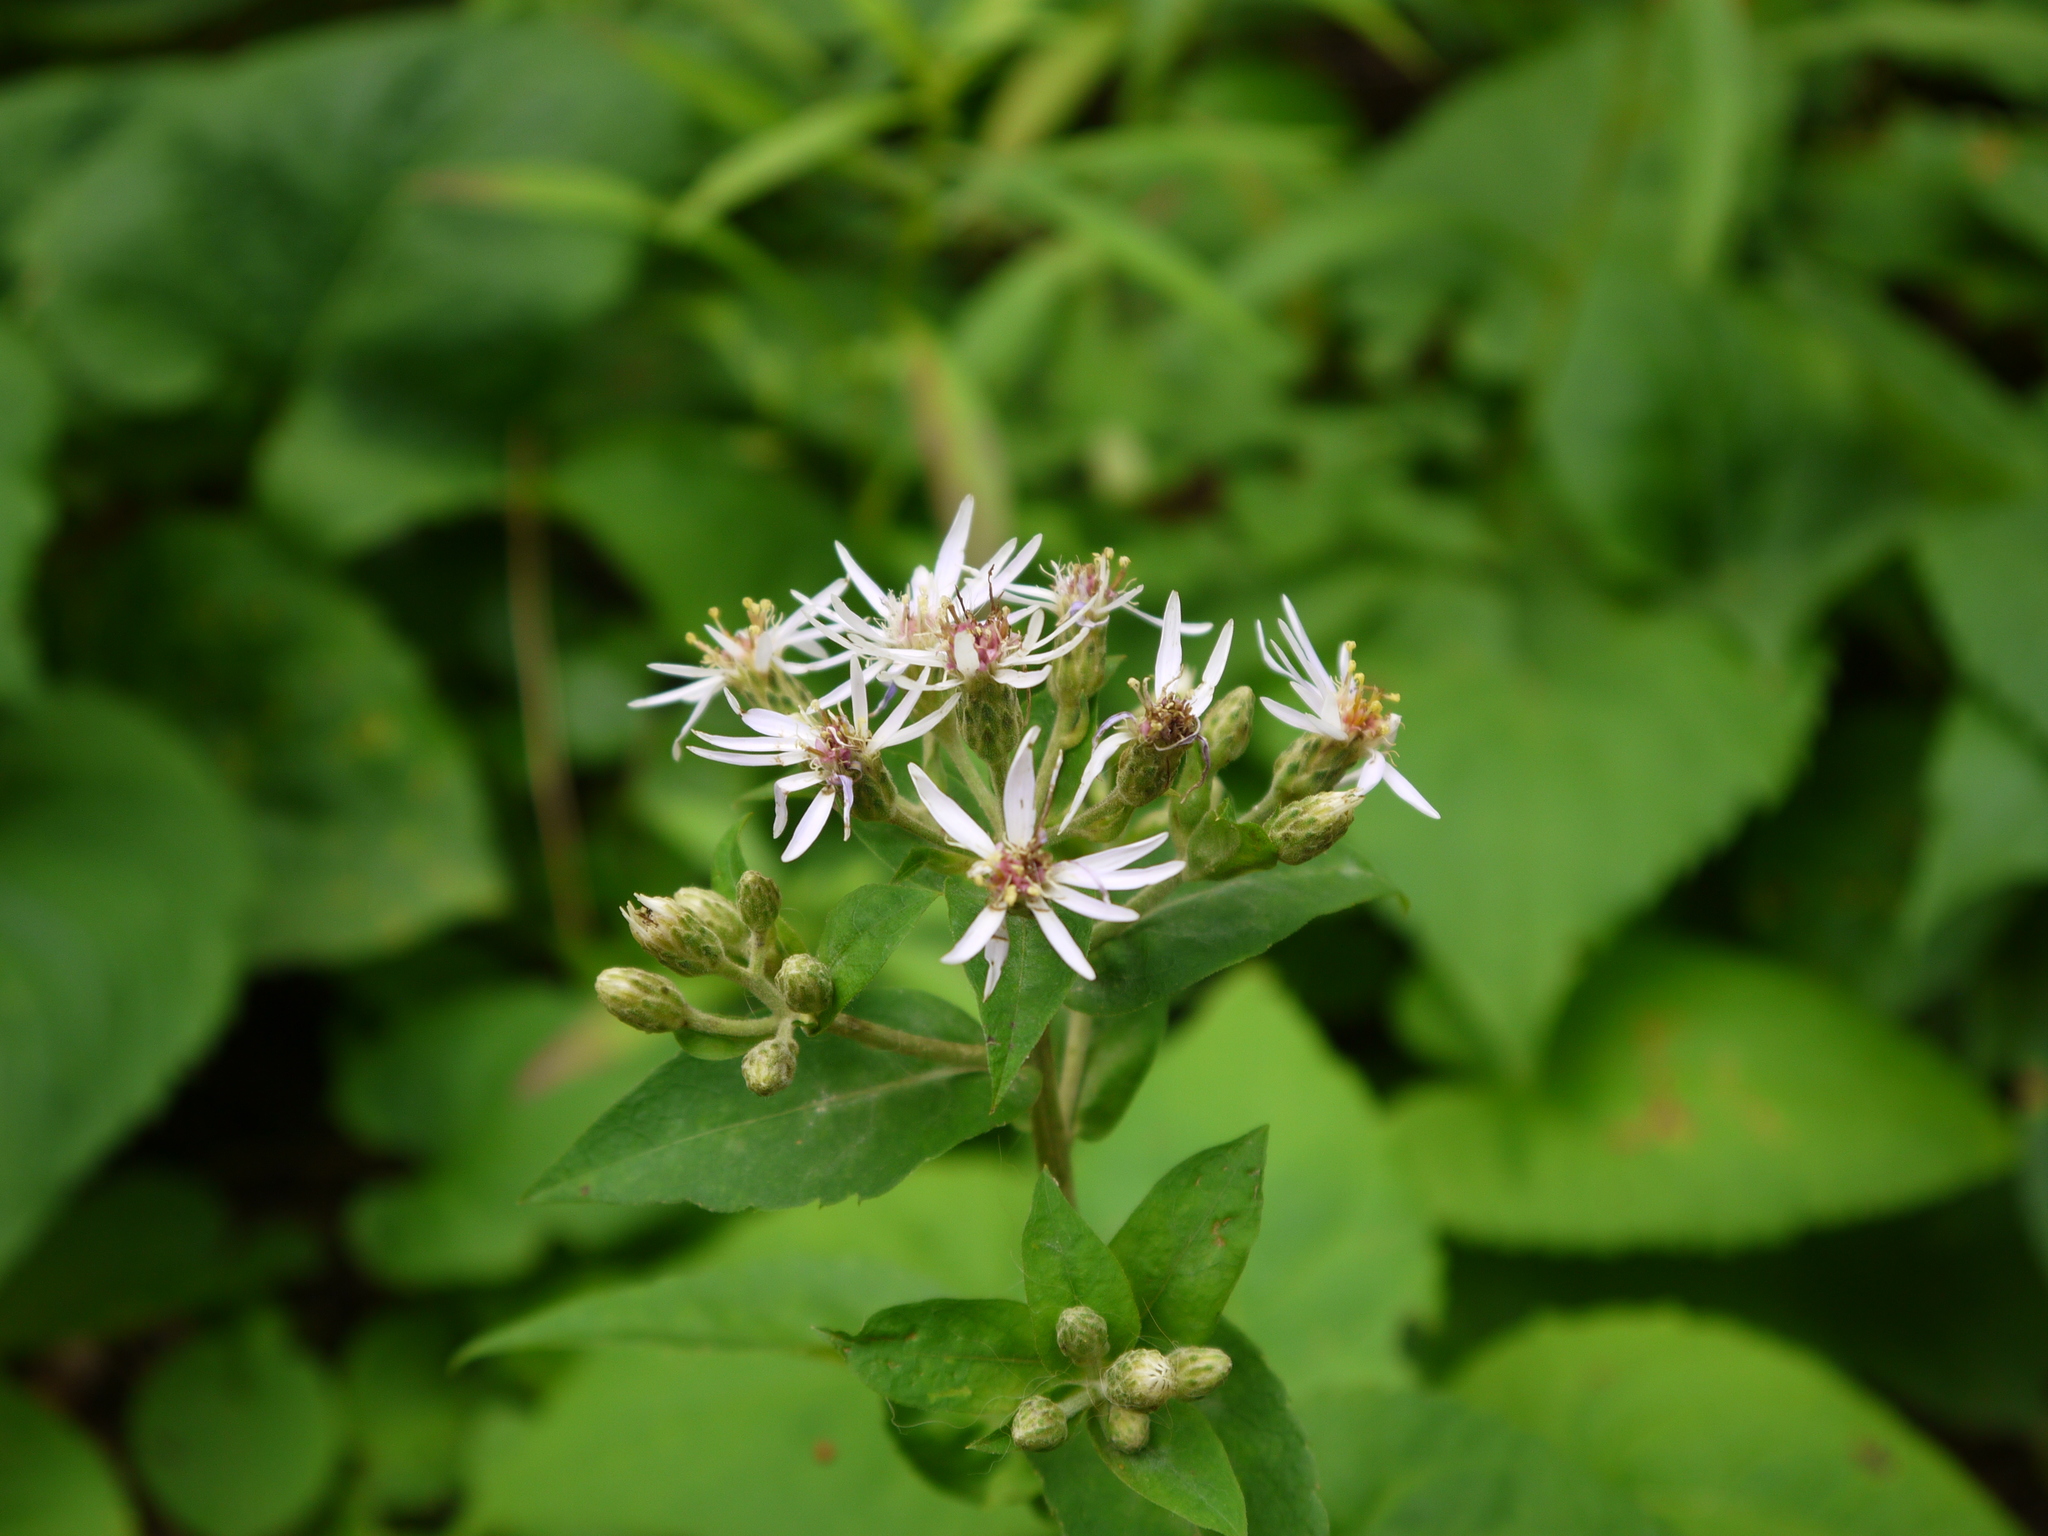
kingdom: Plantae
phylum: Tracheophyta
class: Magnoliopsida
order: Asterales
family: Asteraceae
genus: Eurybia
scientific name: Eurybia macrophylla
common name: Big-leaved aster
